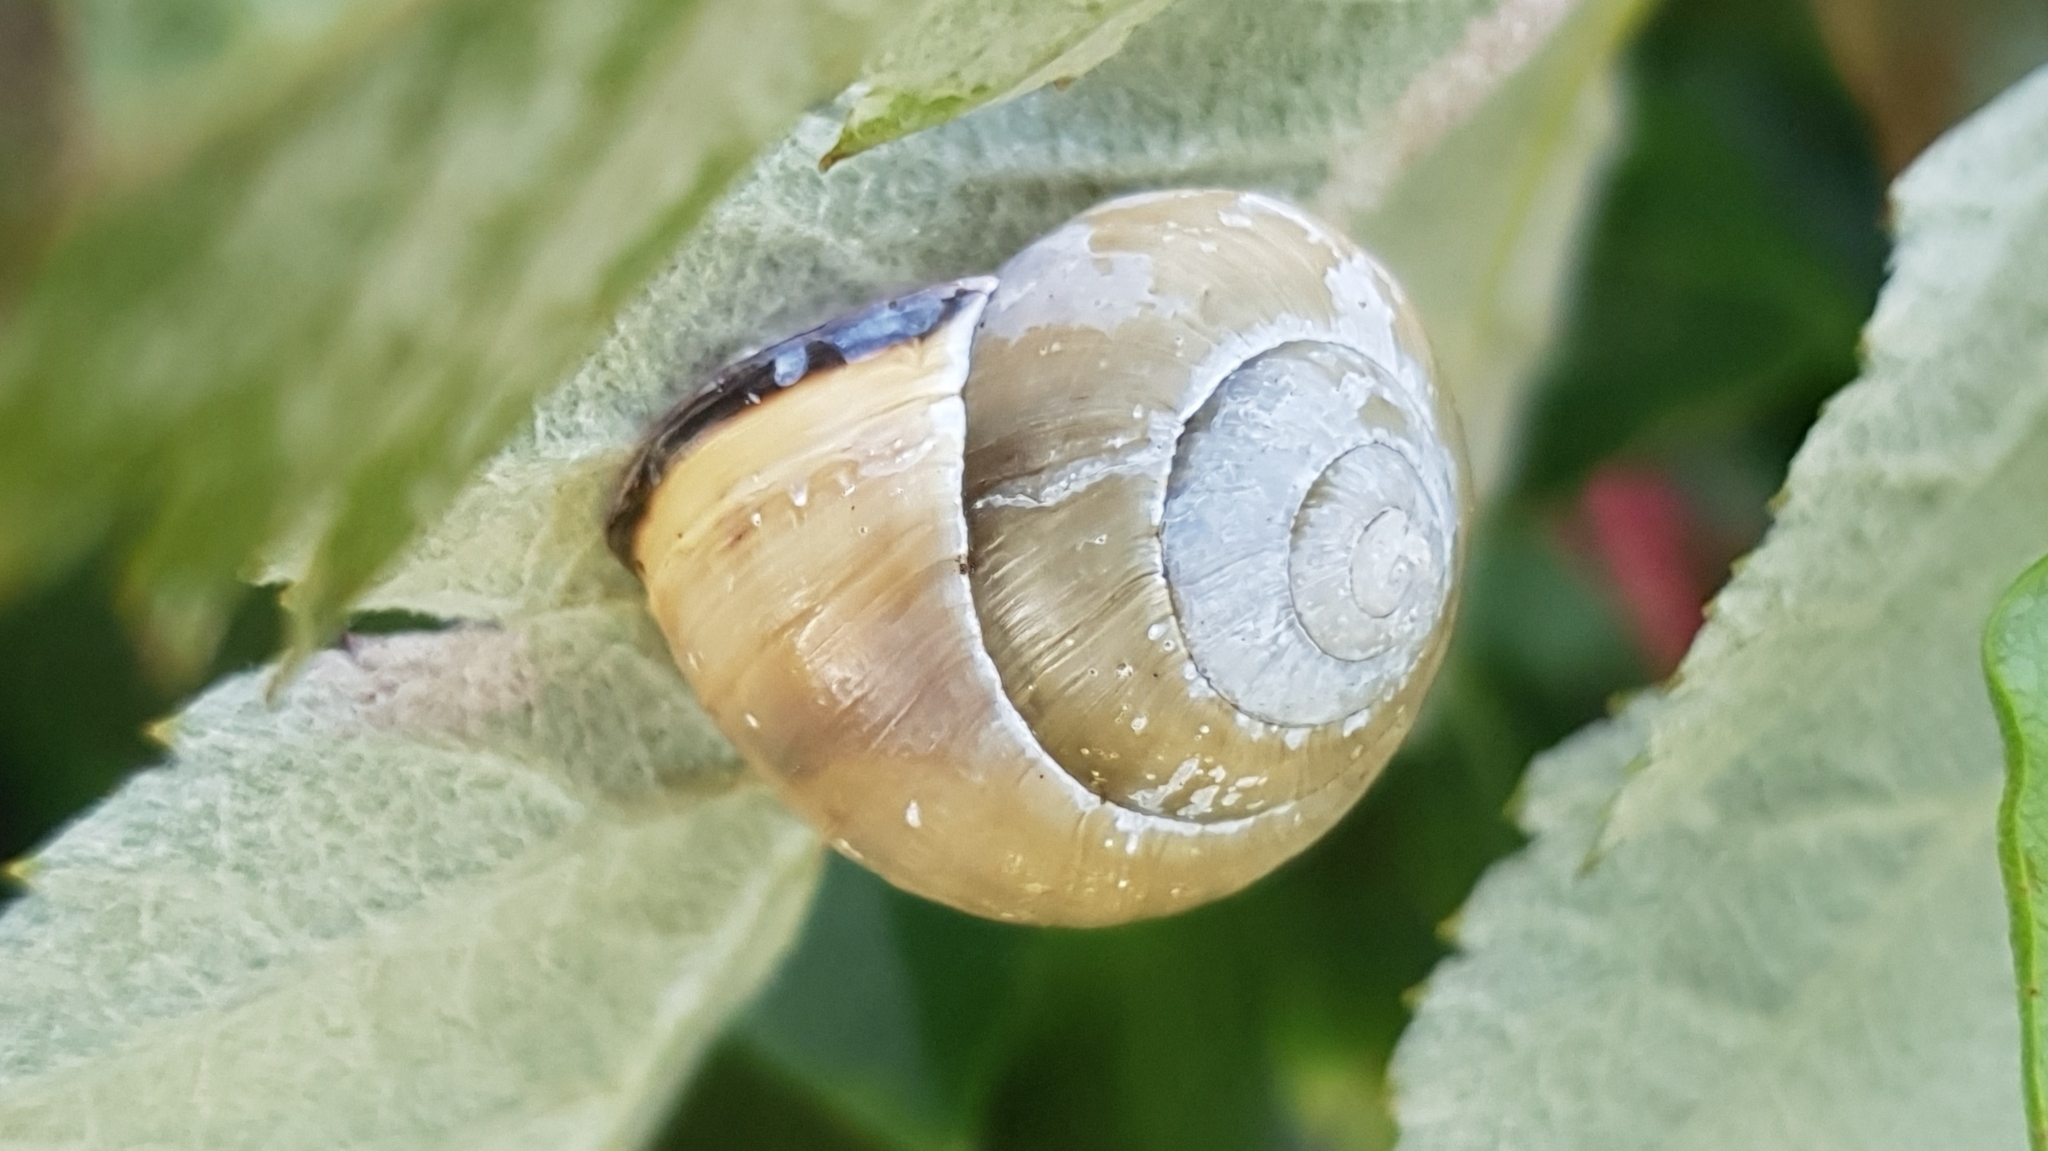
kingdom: Animalia
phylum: Mollusca
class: Gastropoda
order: Stylommatophora
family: Helicidae
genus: Cepaea
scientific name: Cepaea nemoralis
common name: Grovesnail
